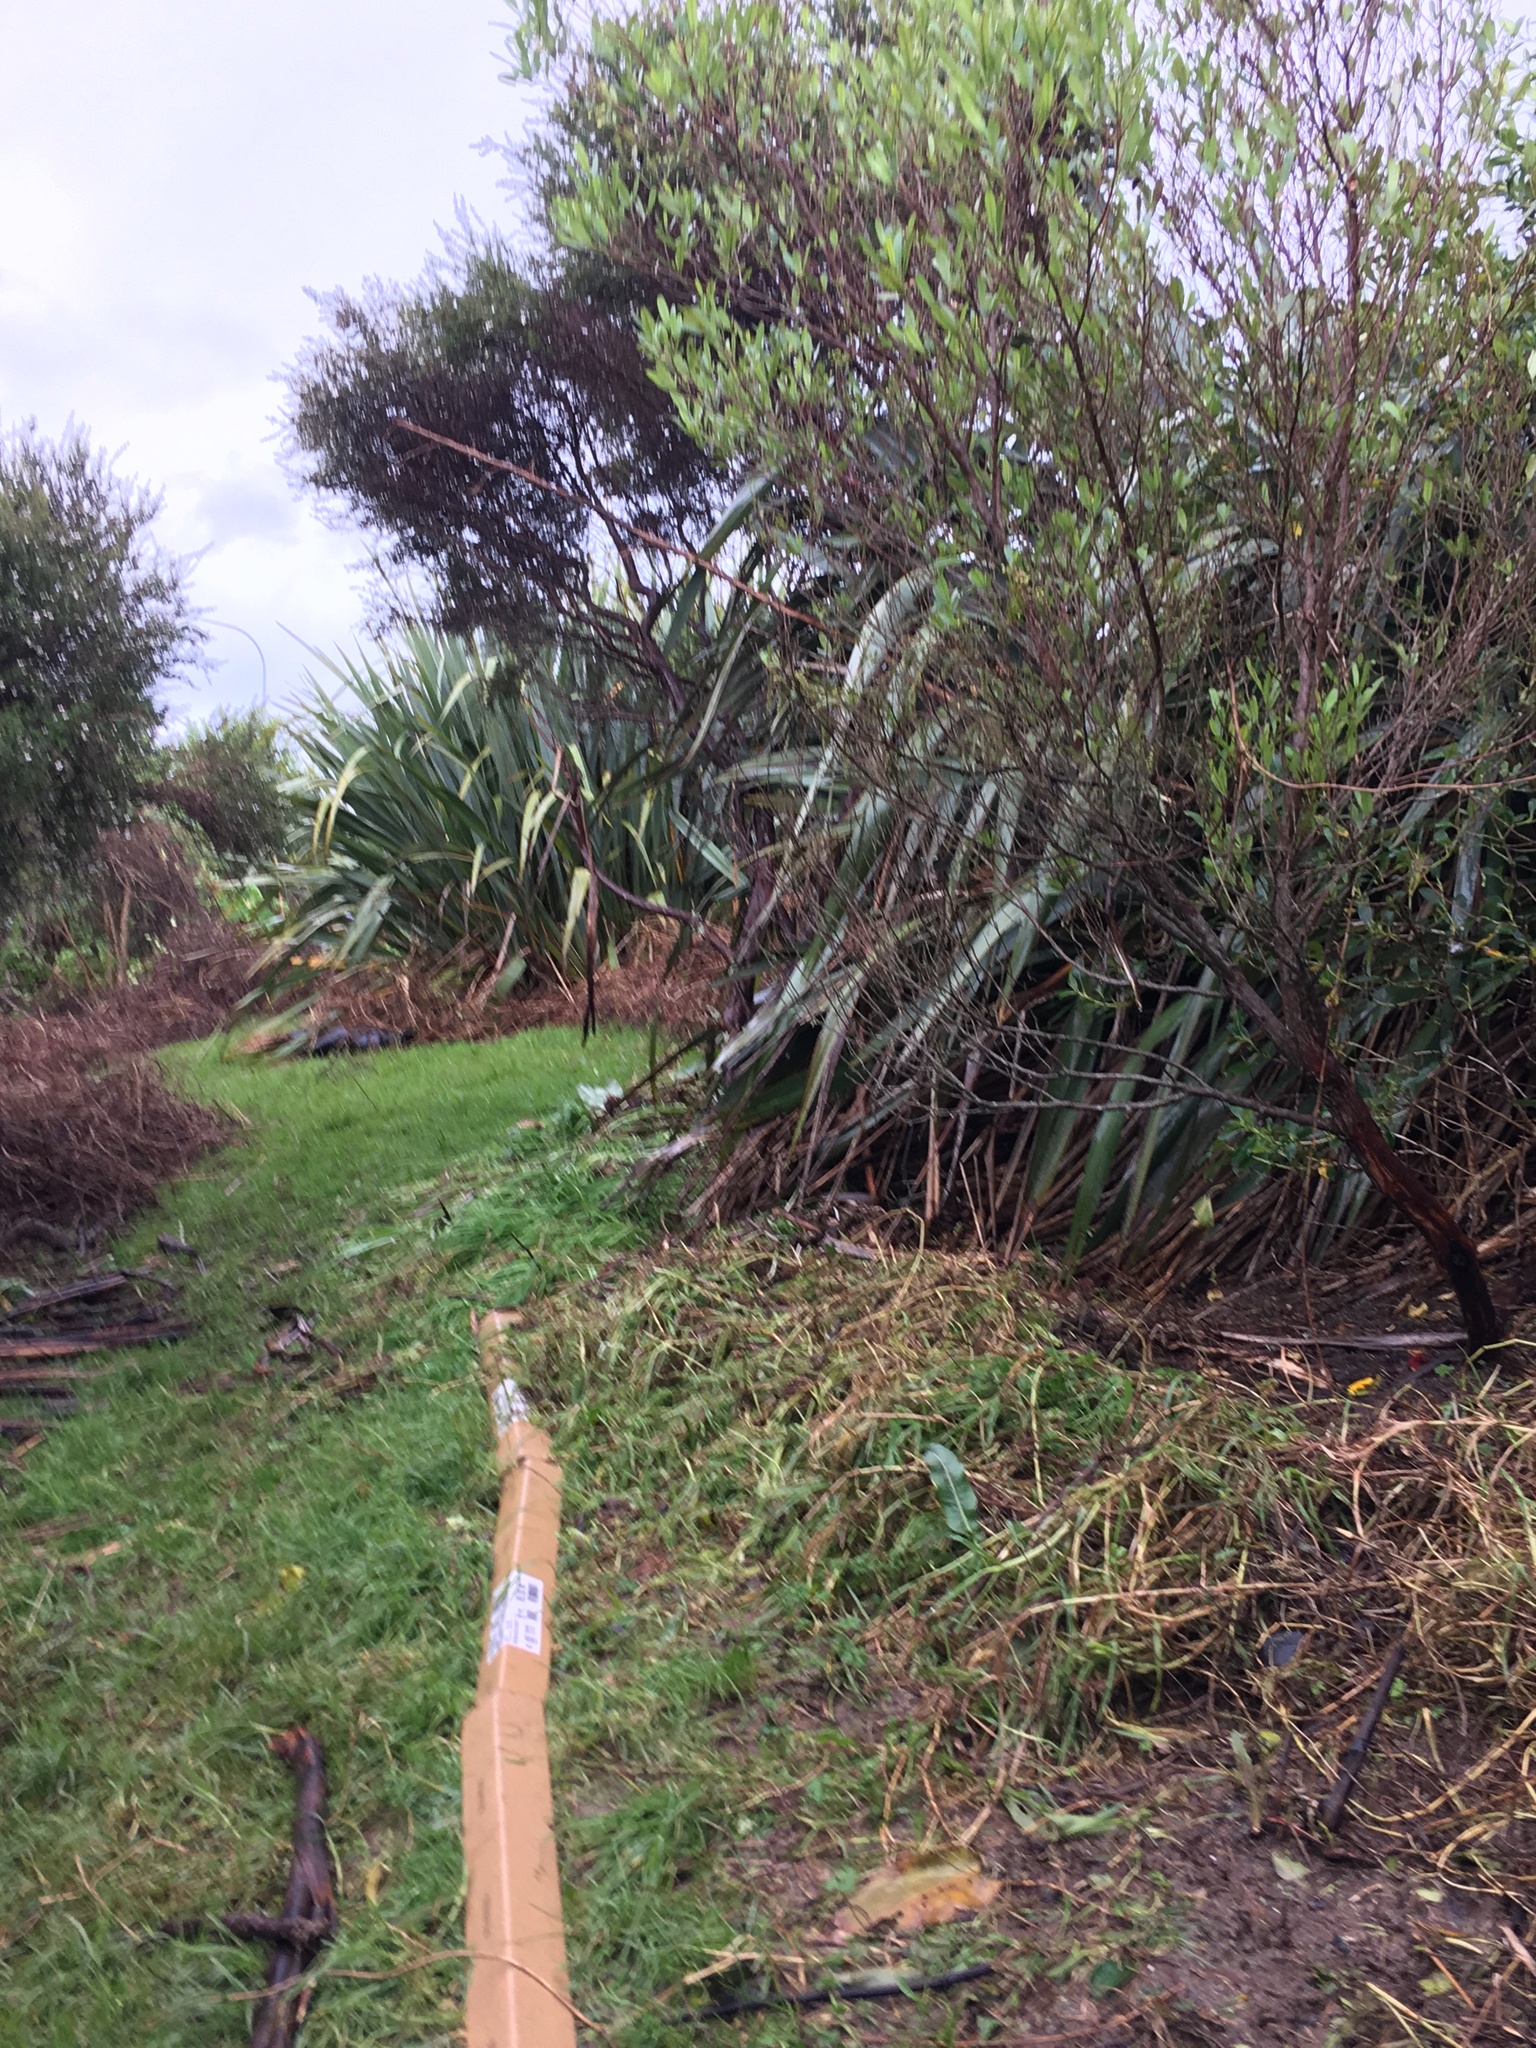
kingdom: Plantae
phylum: Tracheophyta
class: Liliopsida
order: Poales
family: Poaceae
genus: Cenchrus
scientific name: Cenchrus clandestinus
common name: Kikuyugrass
